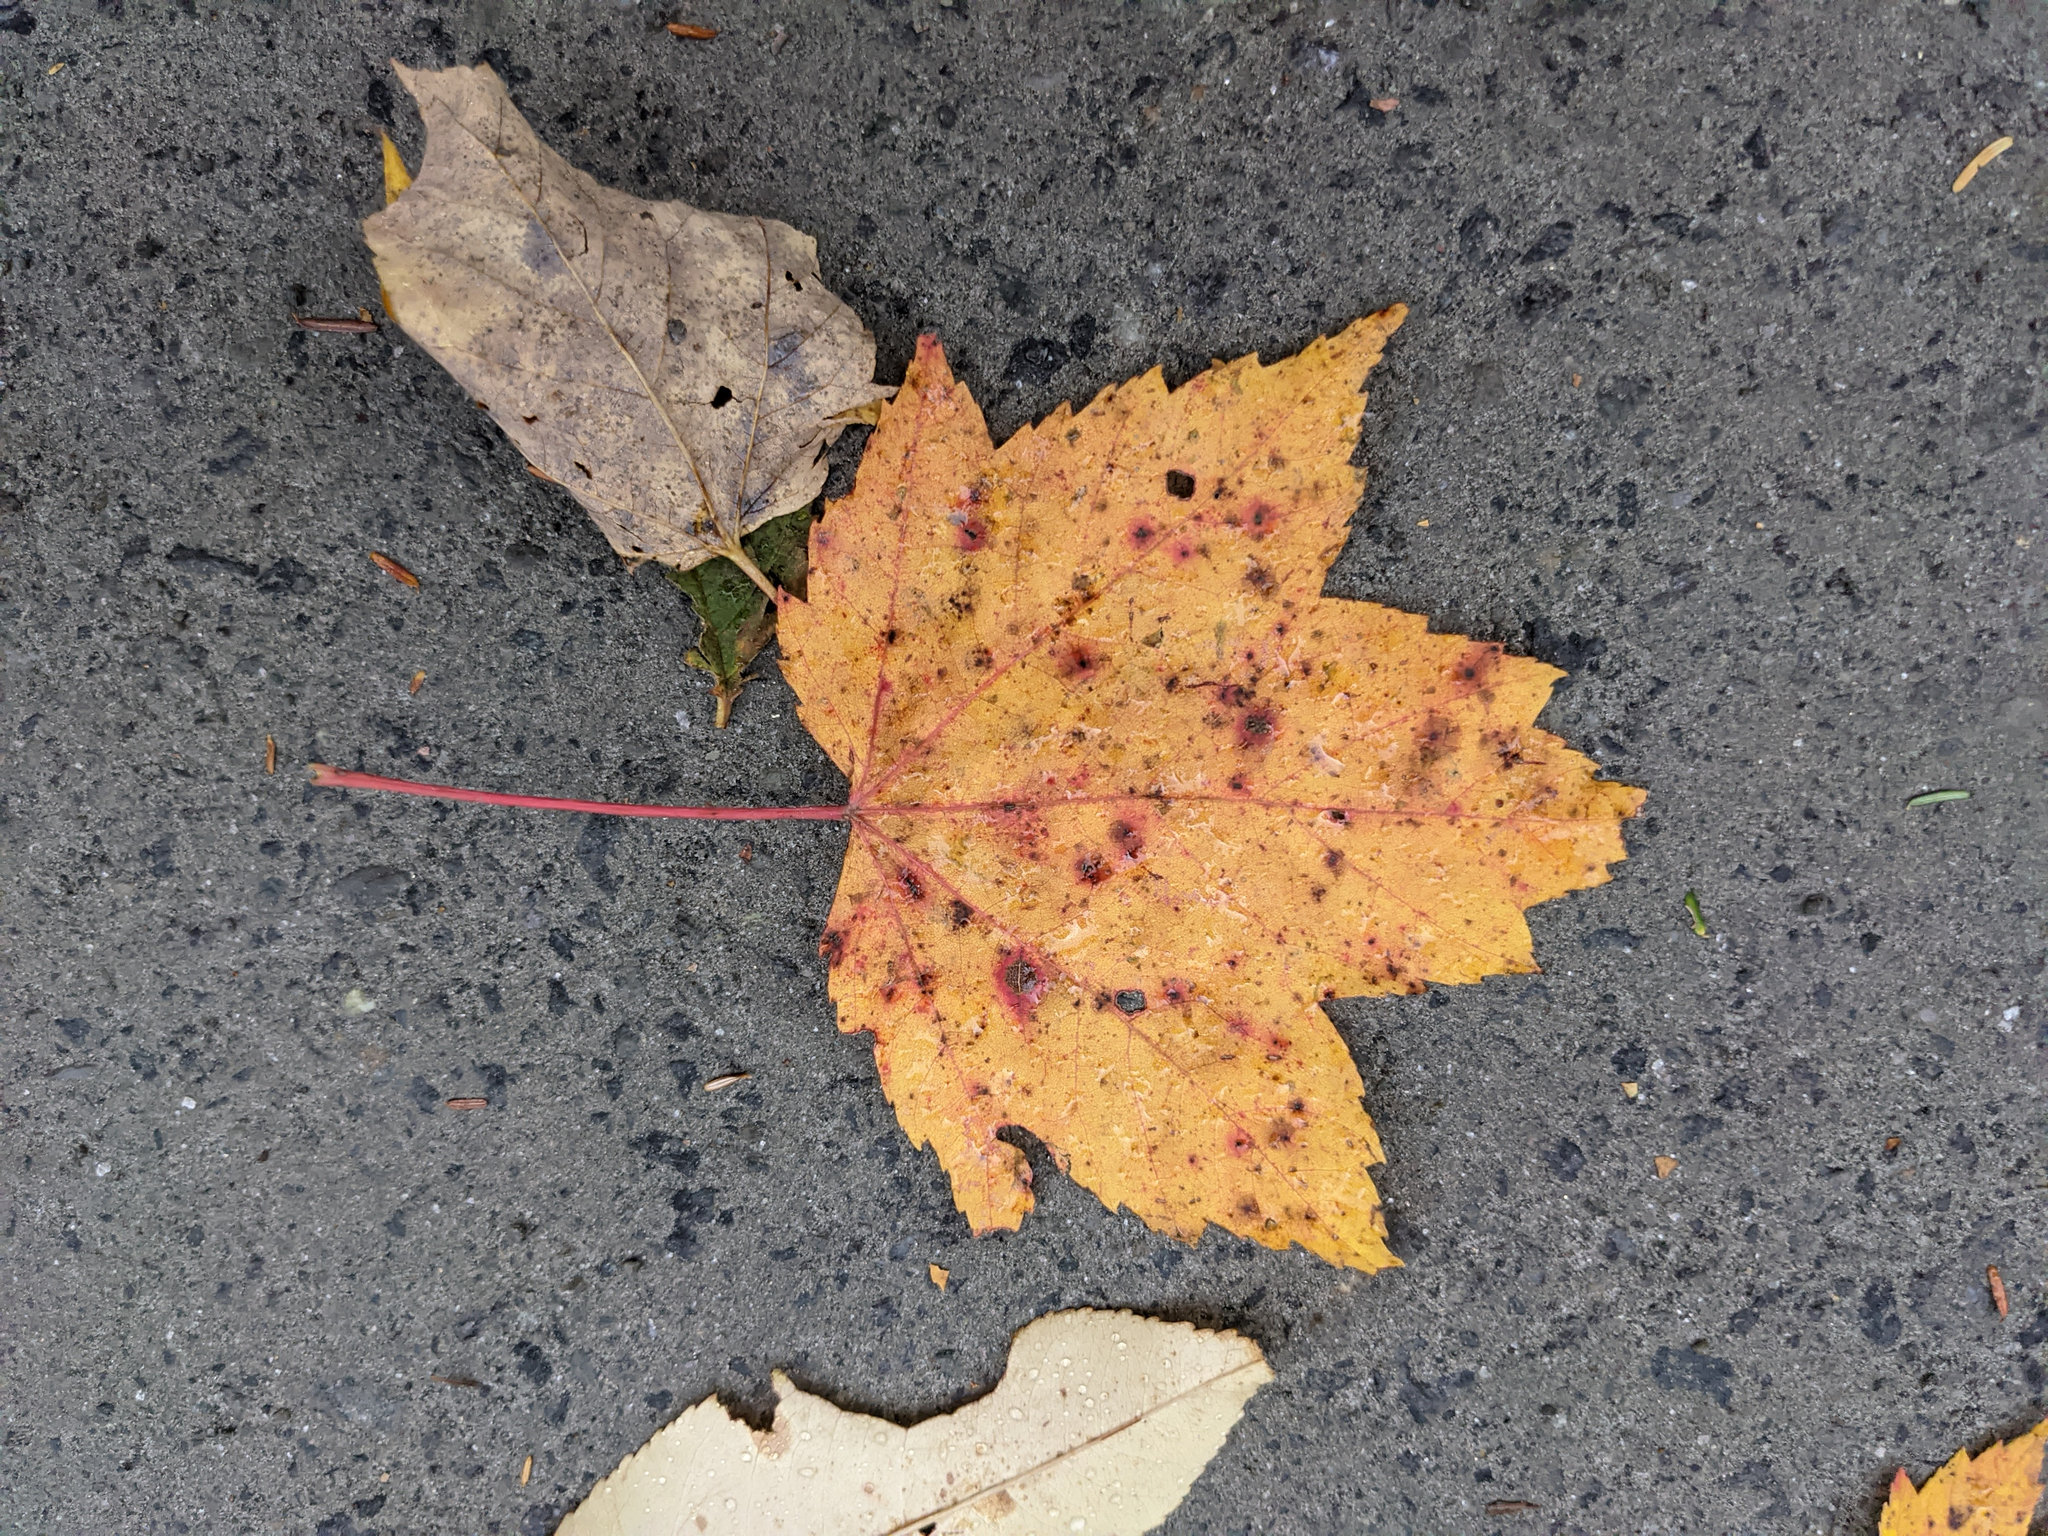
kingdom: Plantae
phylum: Tracheophyta
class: Magnoliopsida
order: Sapindales
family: Sapindaceae
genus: Acer
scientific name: Acer rubrum
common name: Red maple
